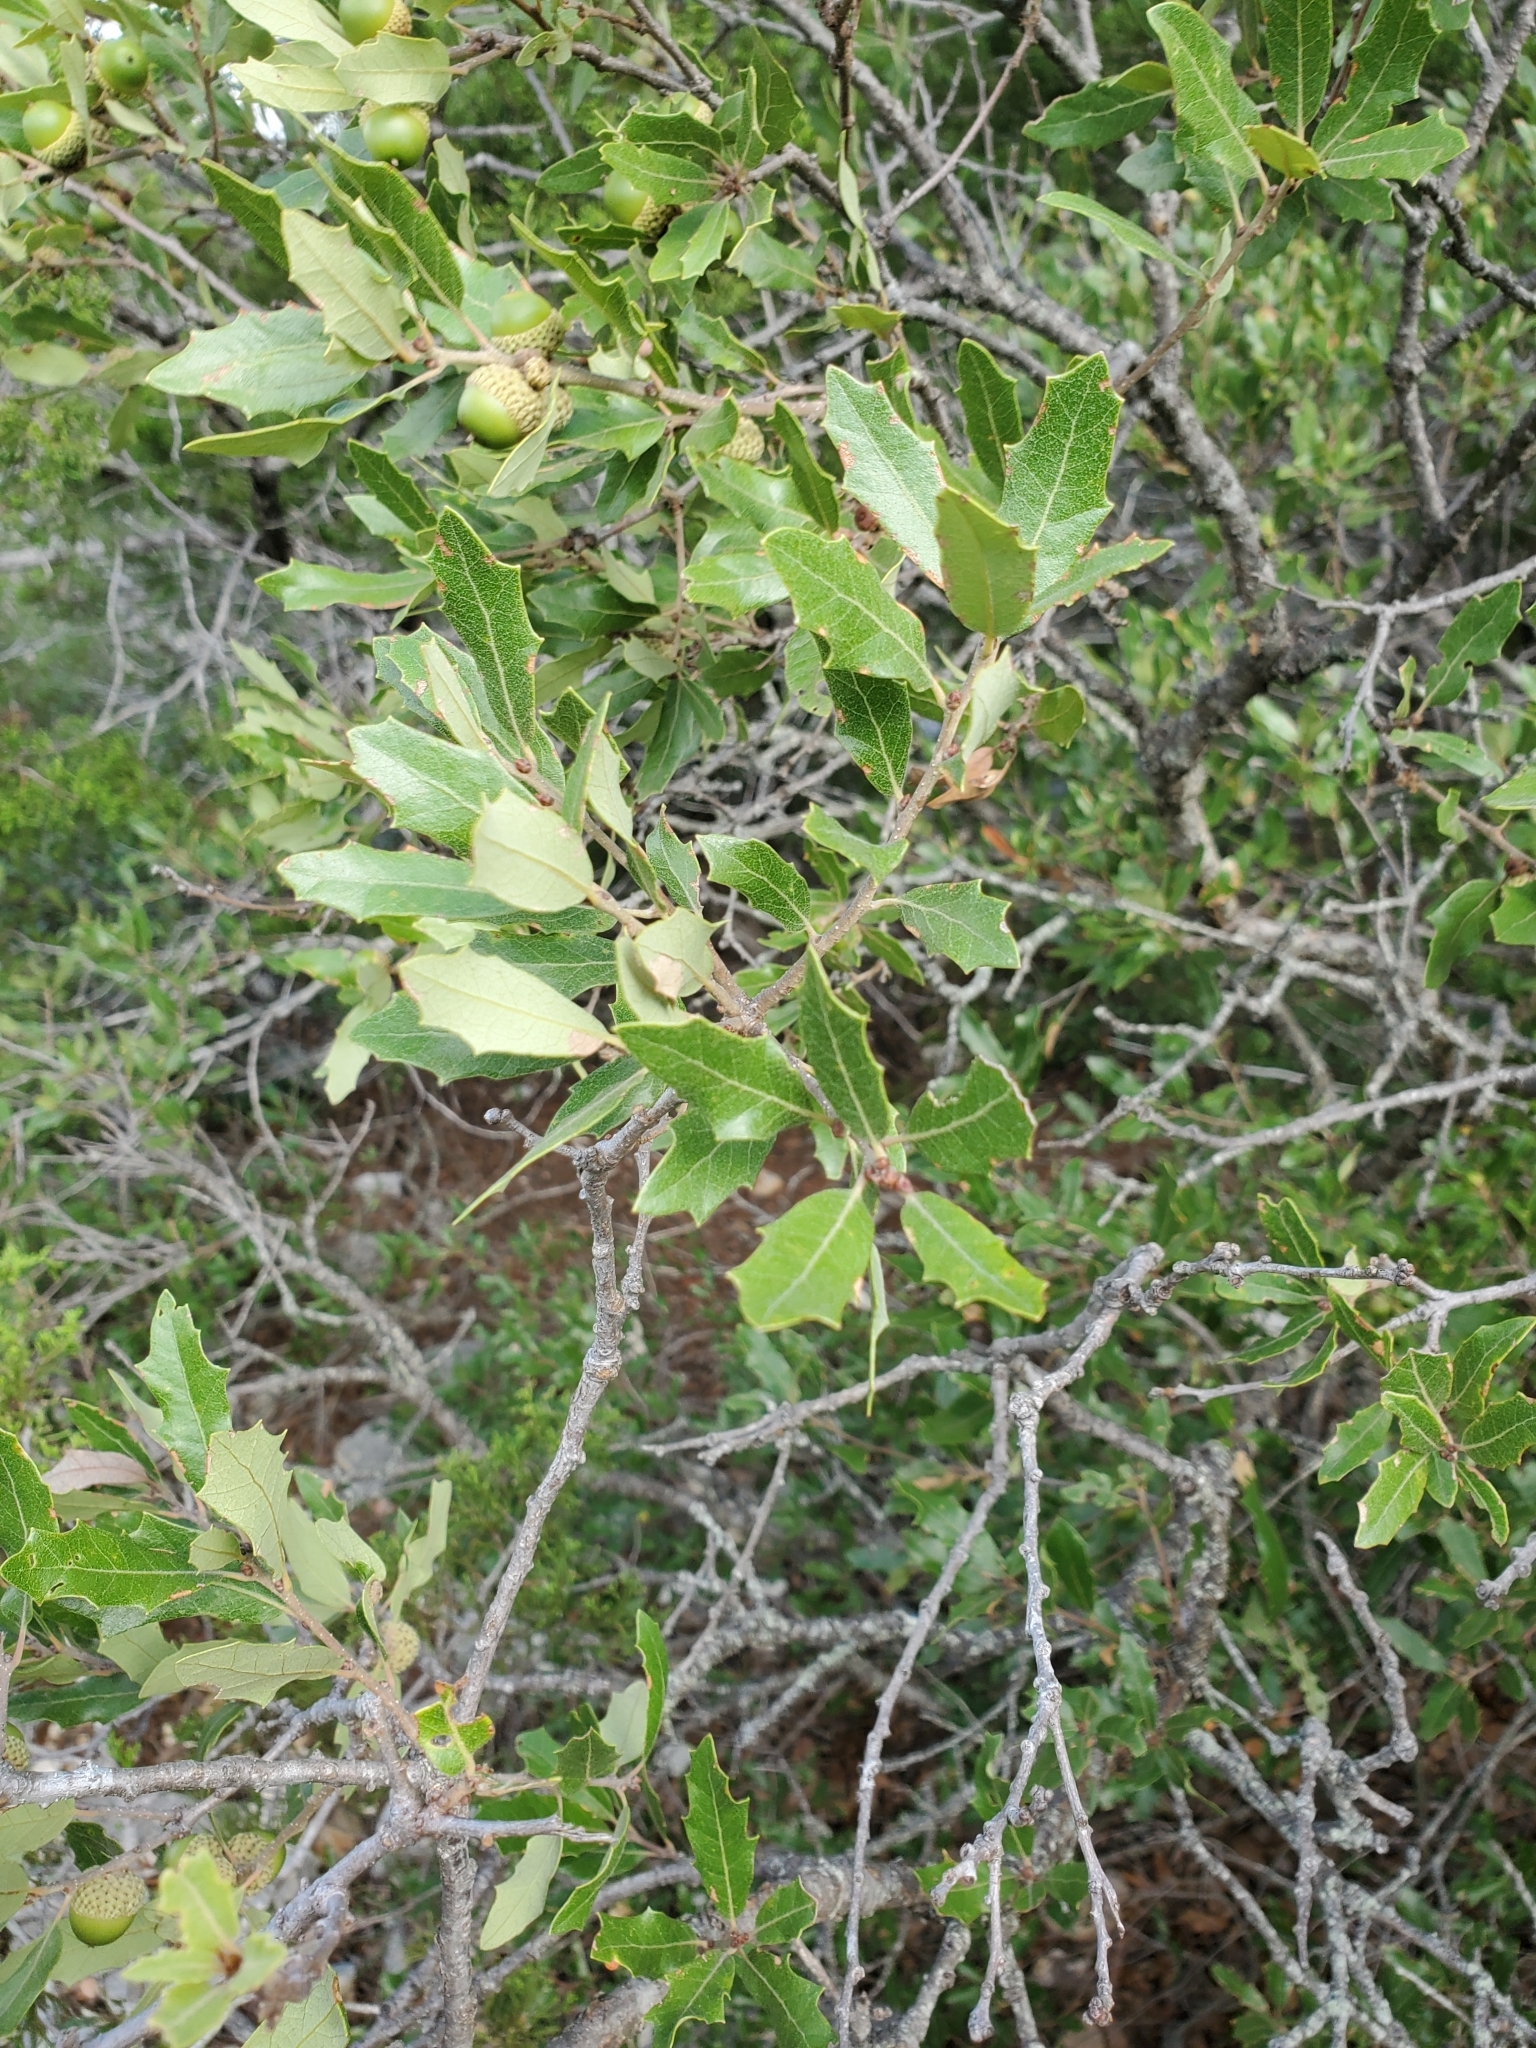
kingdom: Plantae
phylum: Tracheophyta
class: Magnoliopsida
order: Fagales
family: Fagaceae
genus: Quercus
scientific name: Quercus sinuata
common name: Durand oak
